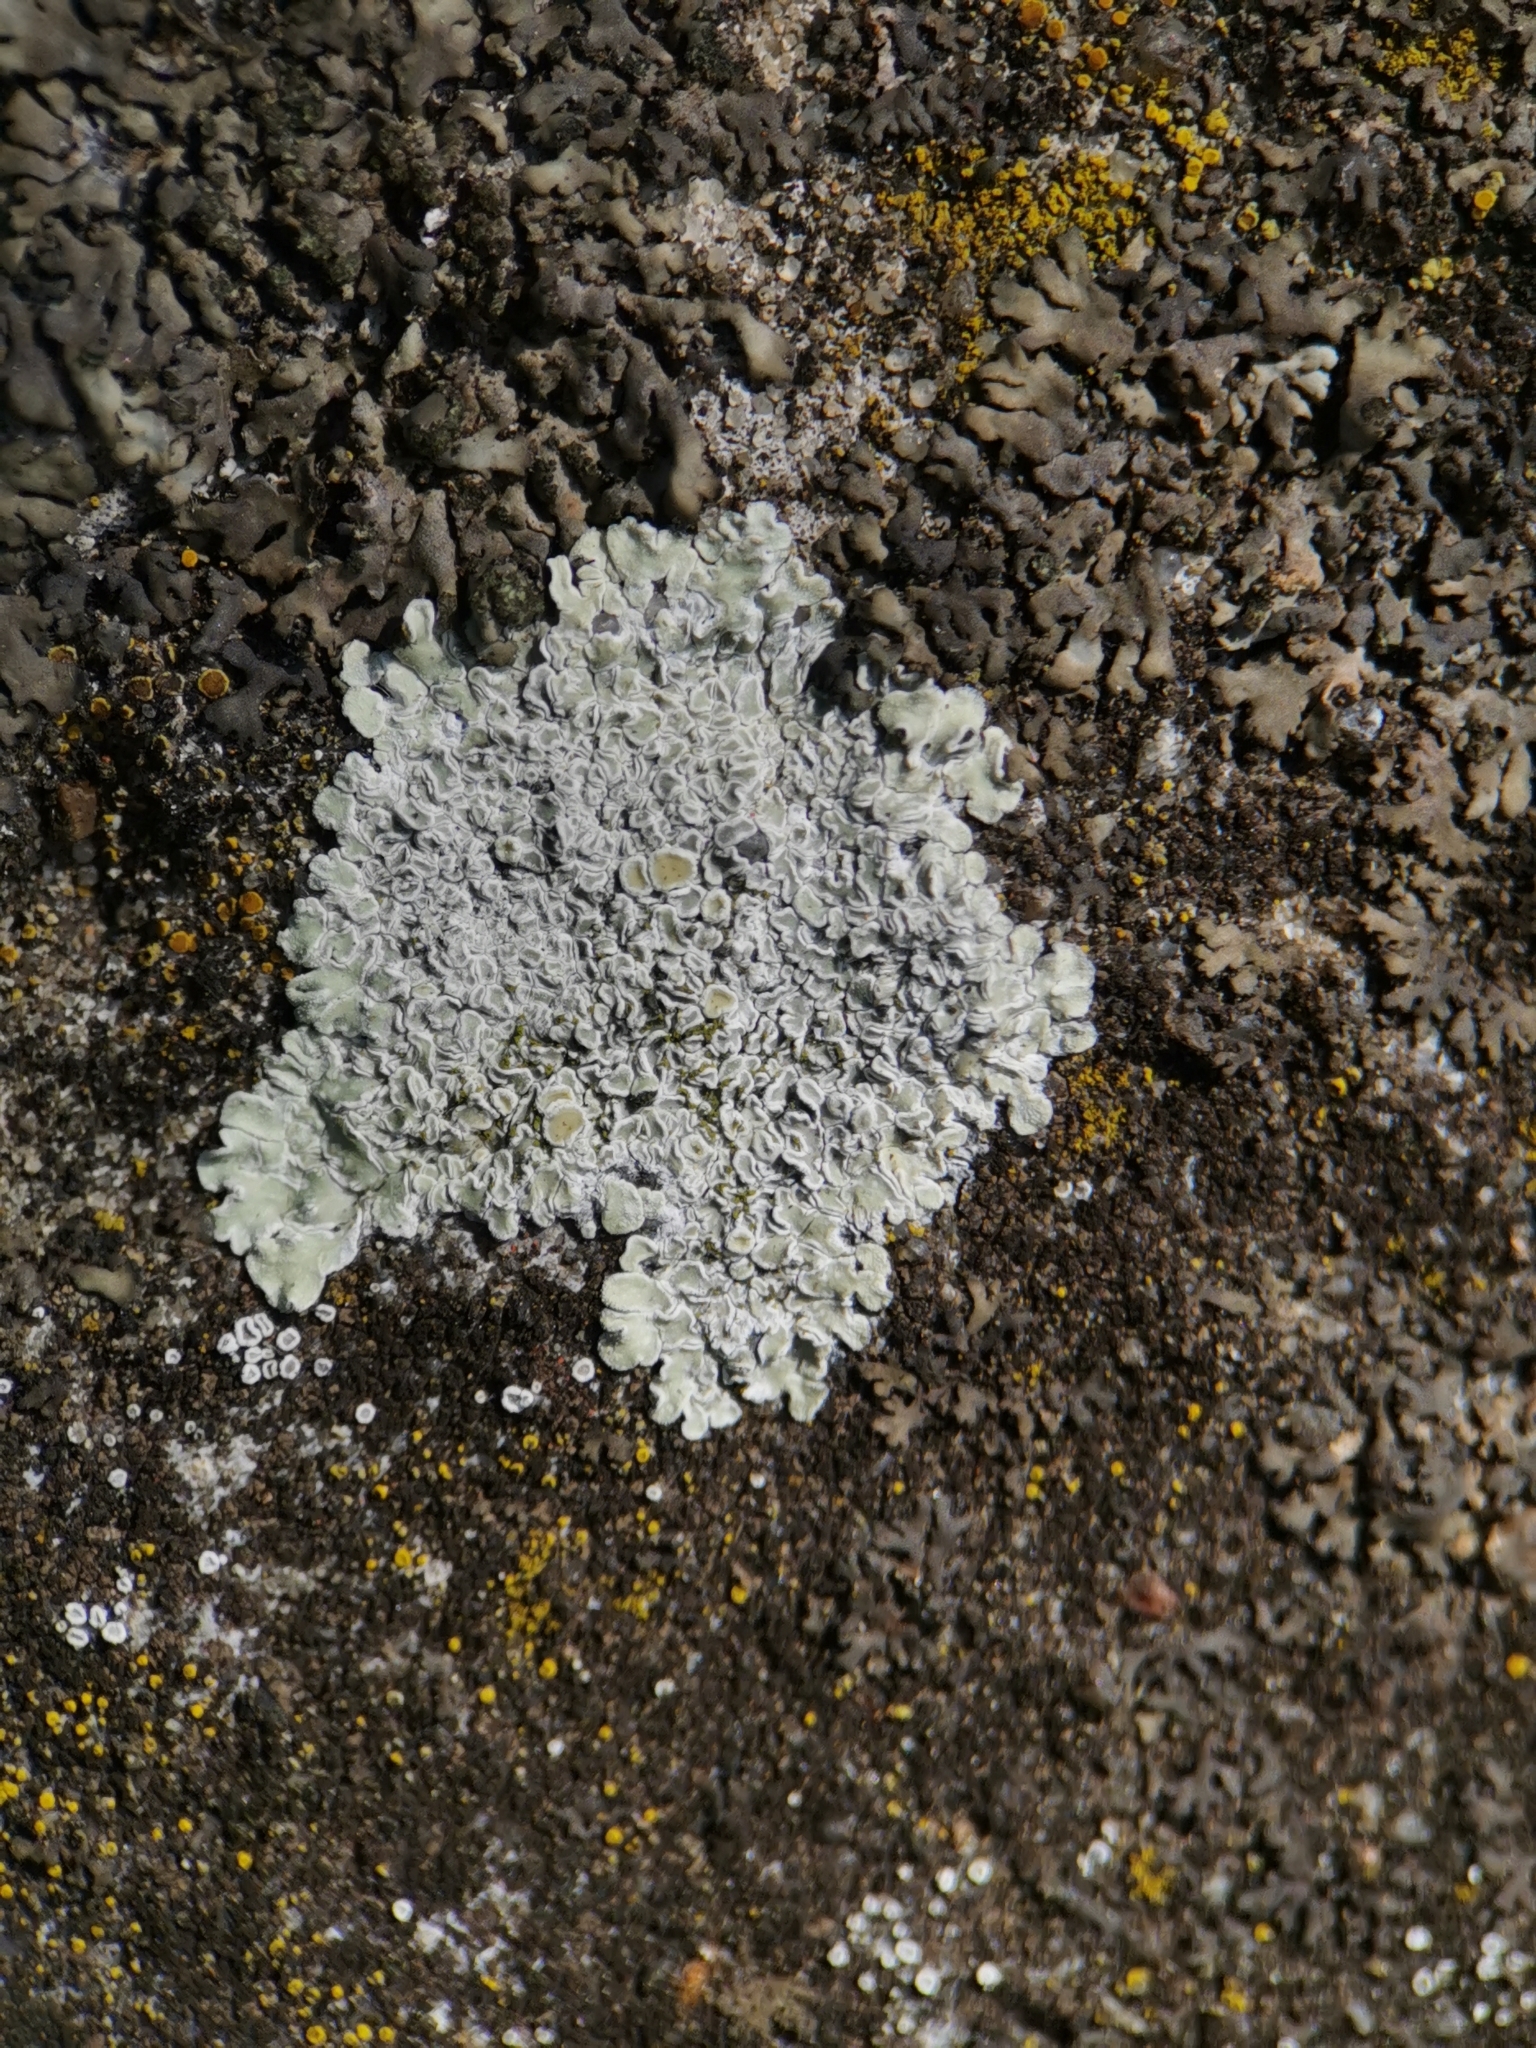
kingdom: Fungi
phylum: Ascomycota
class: Lecanoromycetes
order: Lecanorales
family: Lecanoraceae
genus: Protoparmeliopsis
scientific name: Protoparmeliopsis muralis
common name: Stonewall rim lichen
